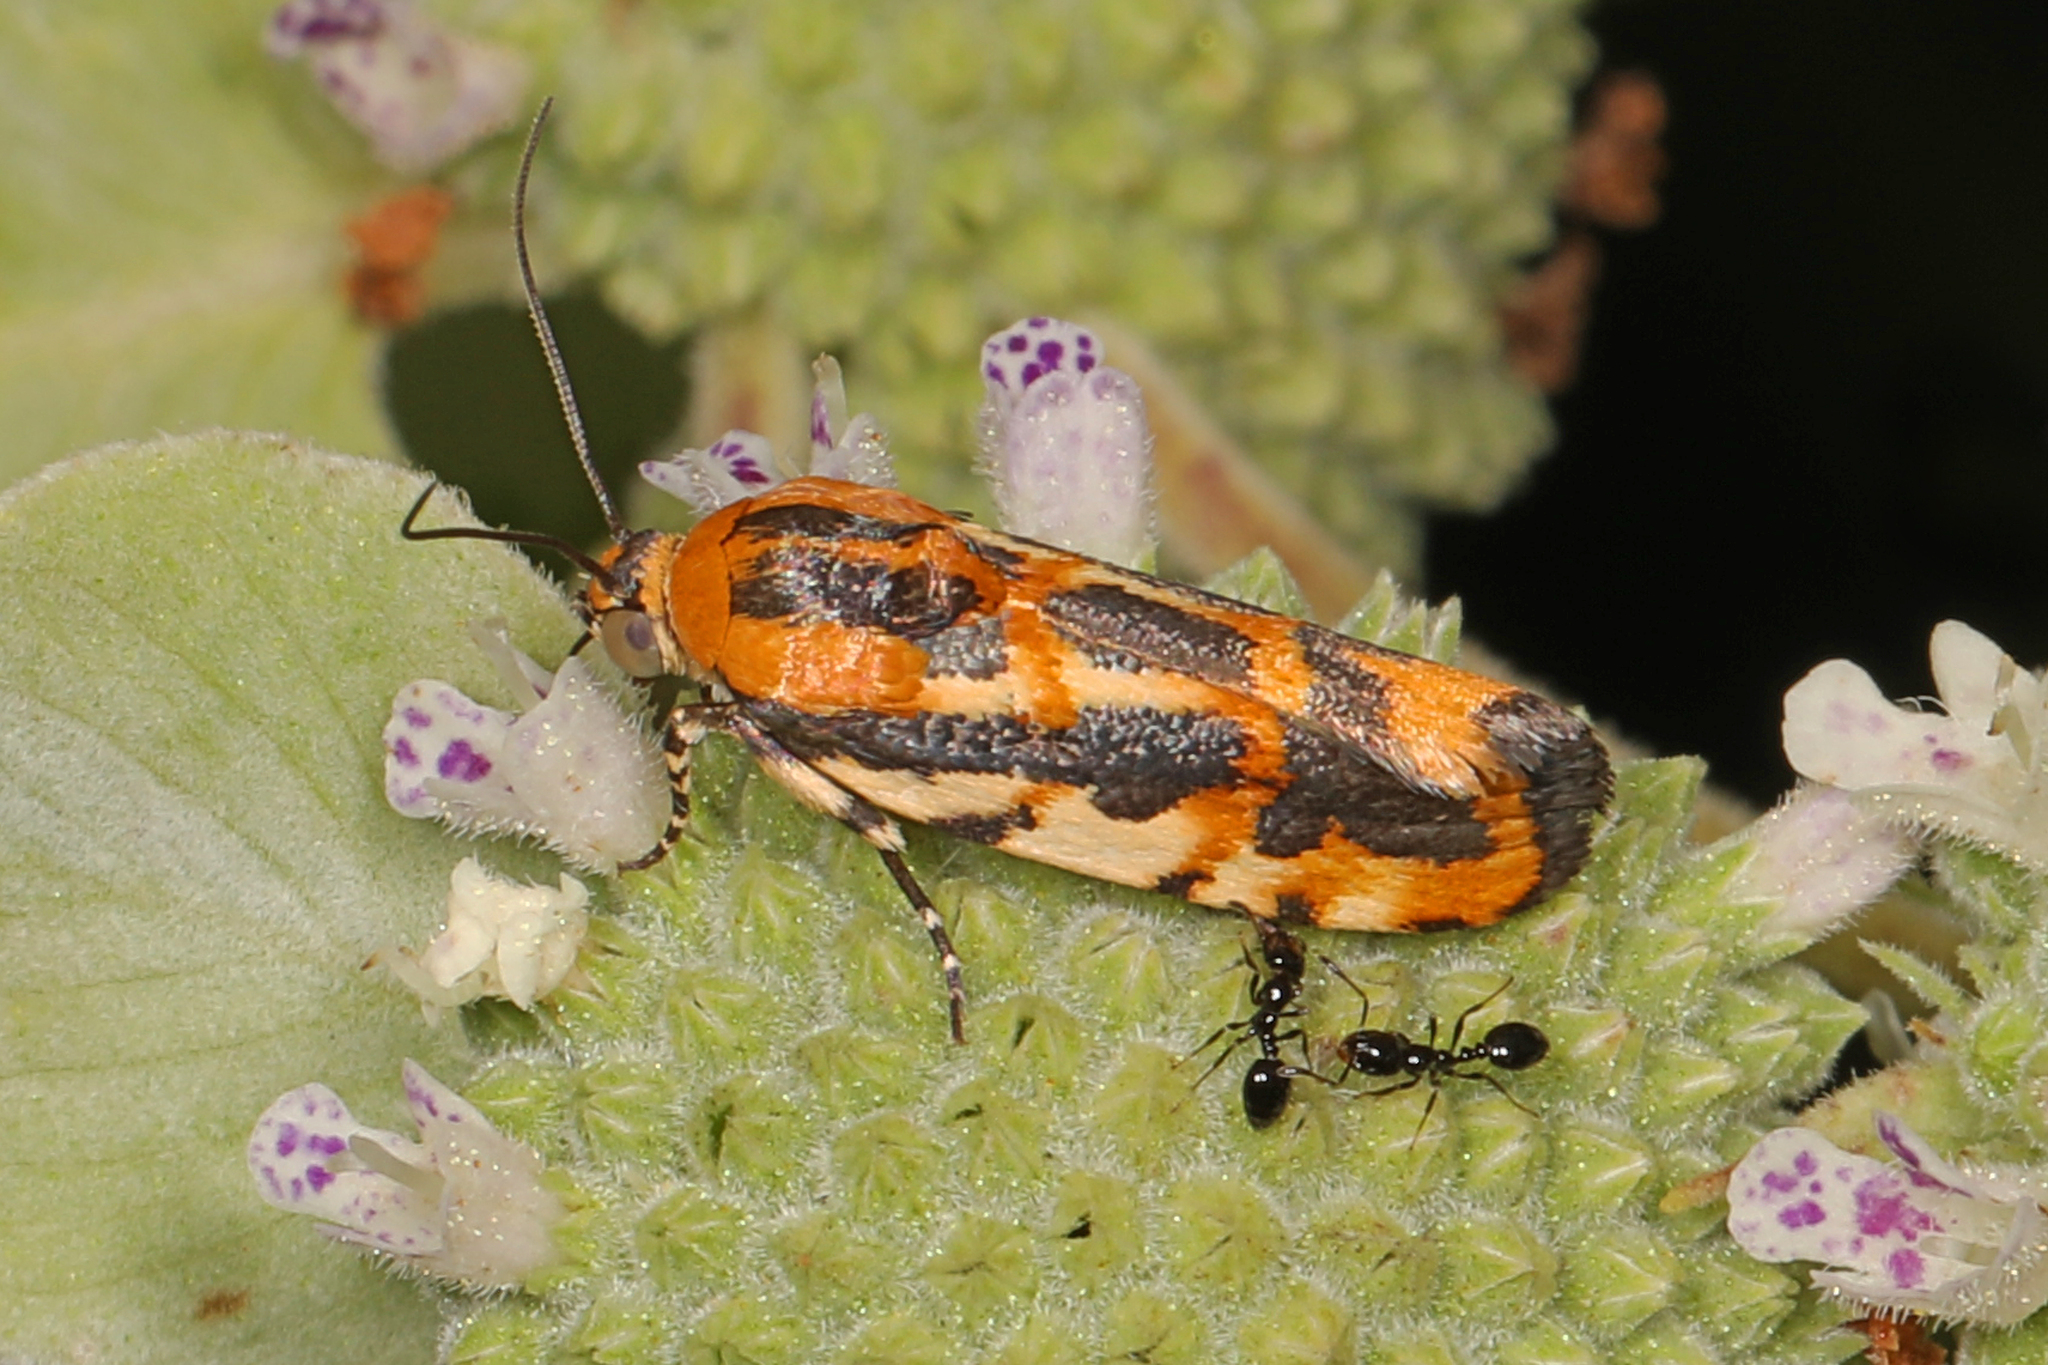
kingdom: Animalia
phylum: Arthropoda
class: Insecta
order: Lepidoptera
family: Noctuidae
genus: Acontia
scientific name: Acontia leo
